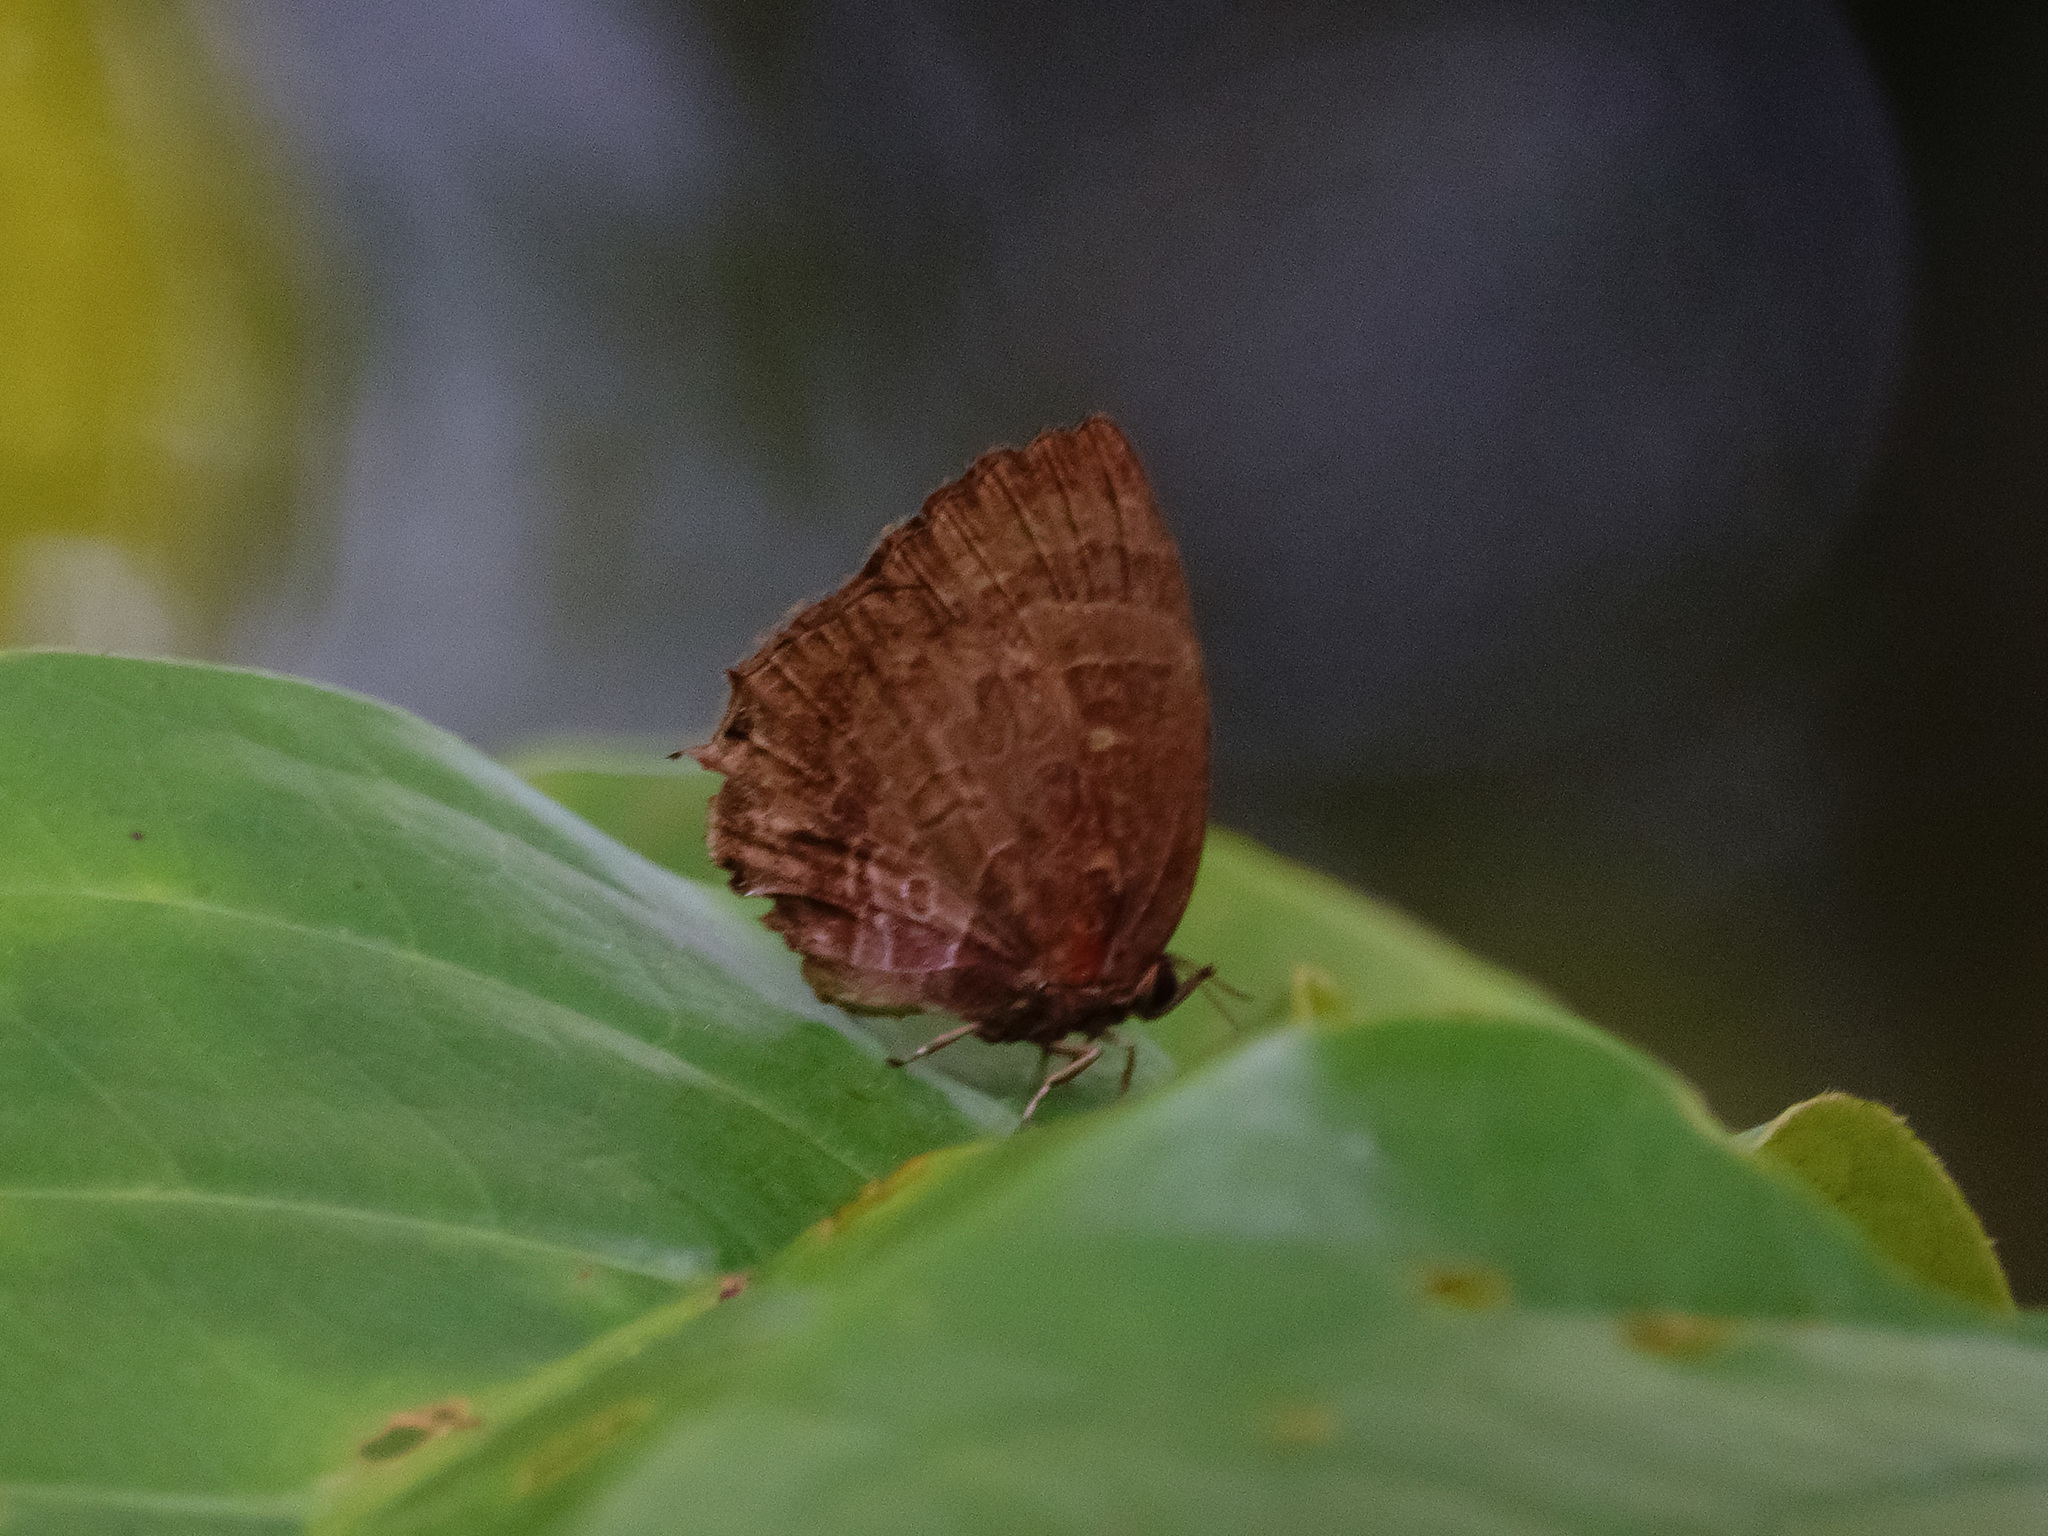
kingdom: Animalia
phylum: Arthropoda
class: Insecta
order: Lepidoptera
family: Lycaenidae
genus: Flos
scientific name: Flos apidanus
